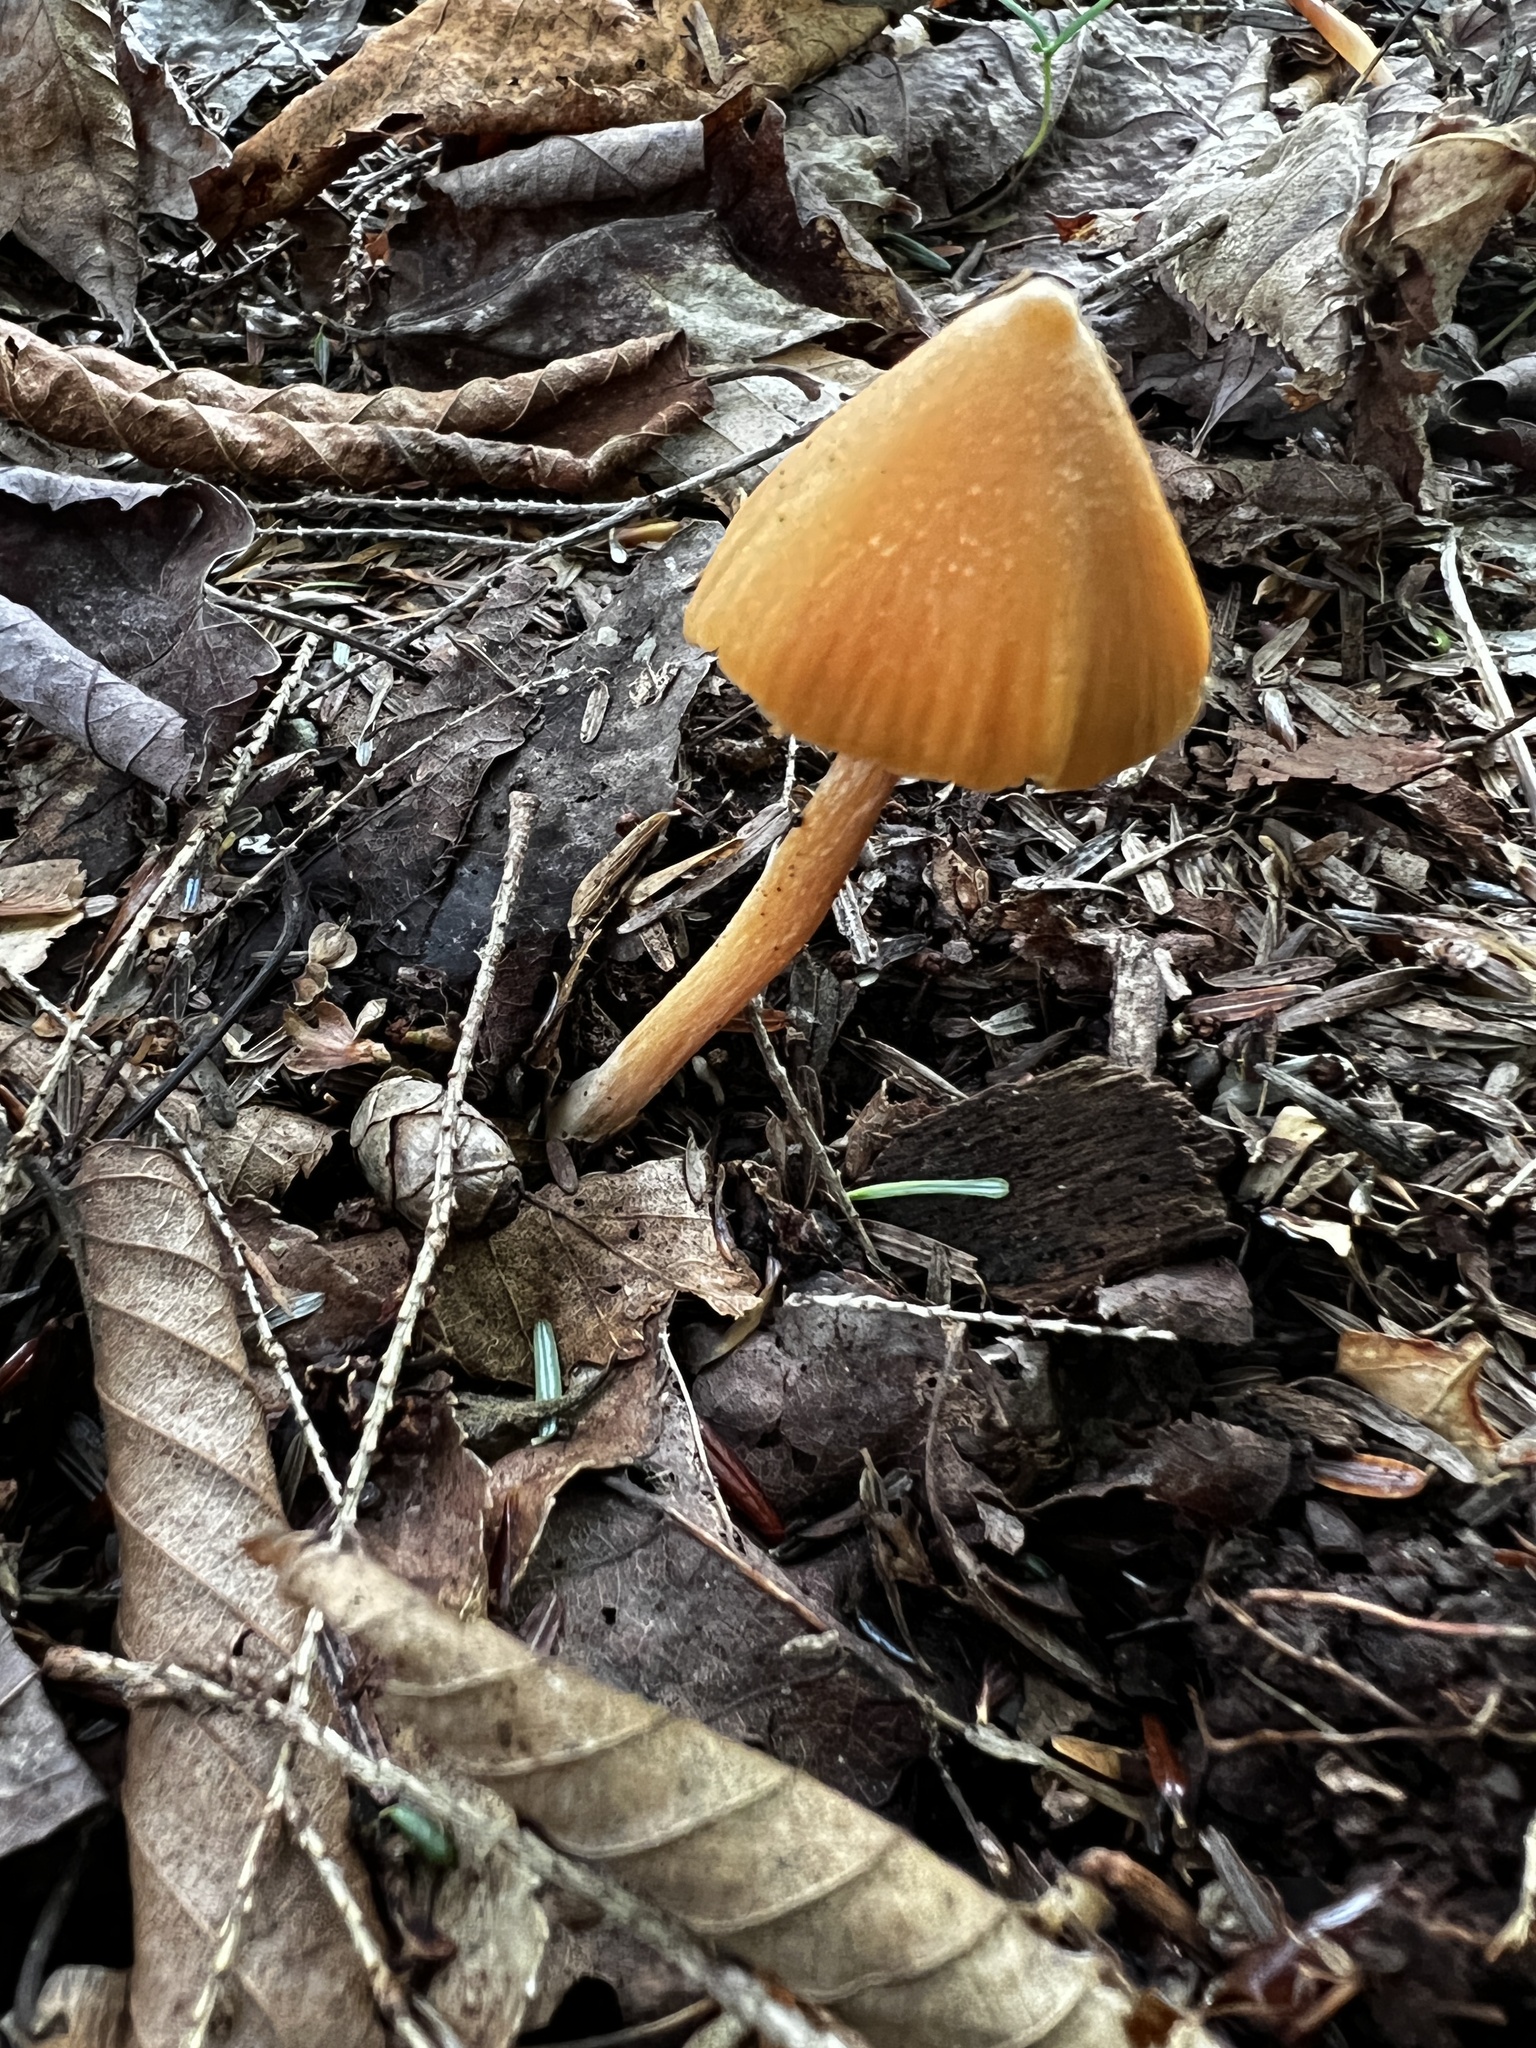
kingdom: Fungi
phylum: Basidiomycota
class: Agaricomycetes
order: Agaricales
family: Entolomataceae
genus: Entoloma
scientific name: Entoloma quadratum
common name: Salmon pinkgill
